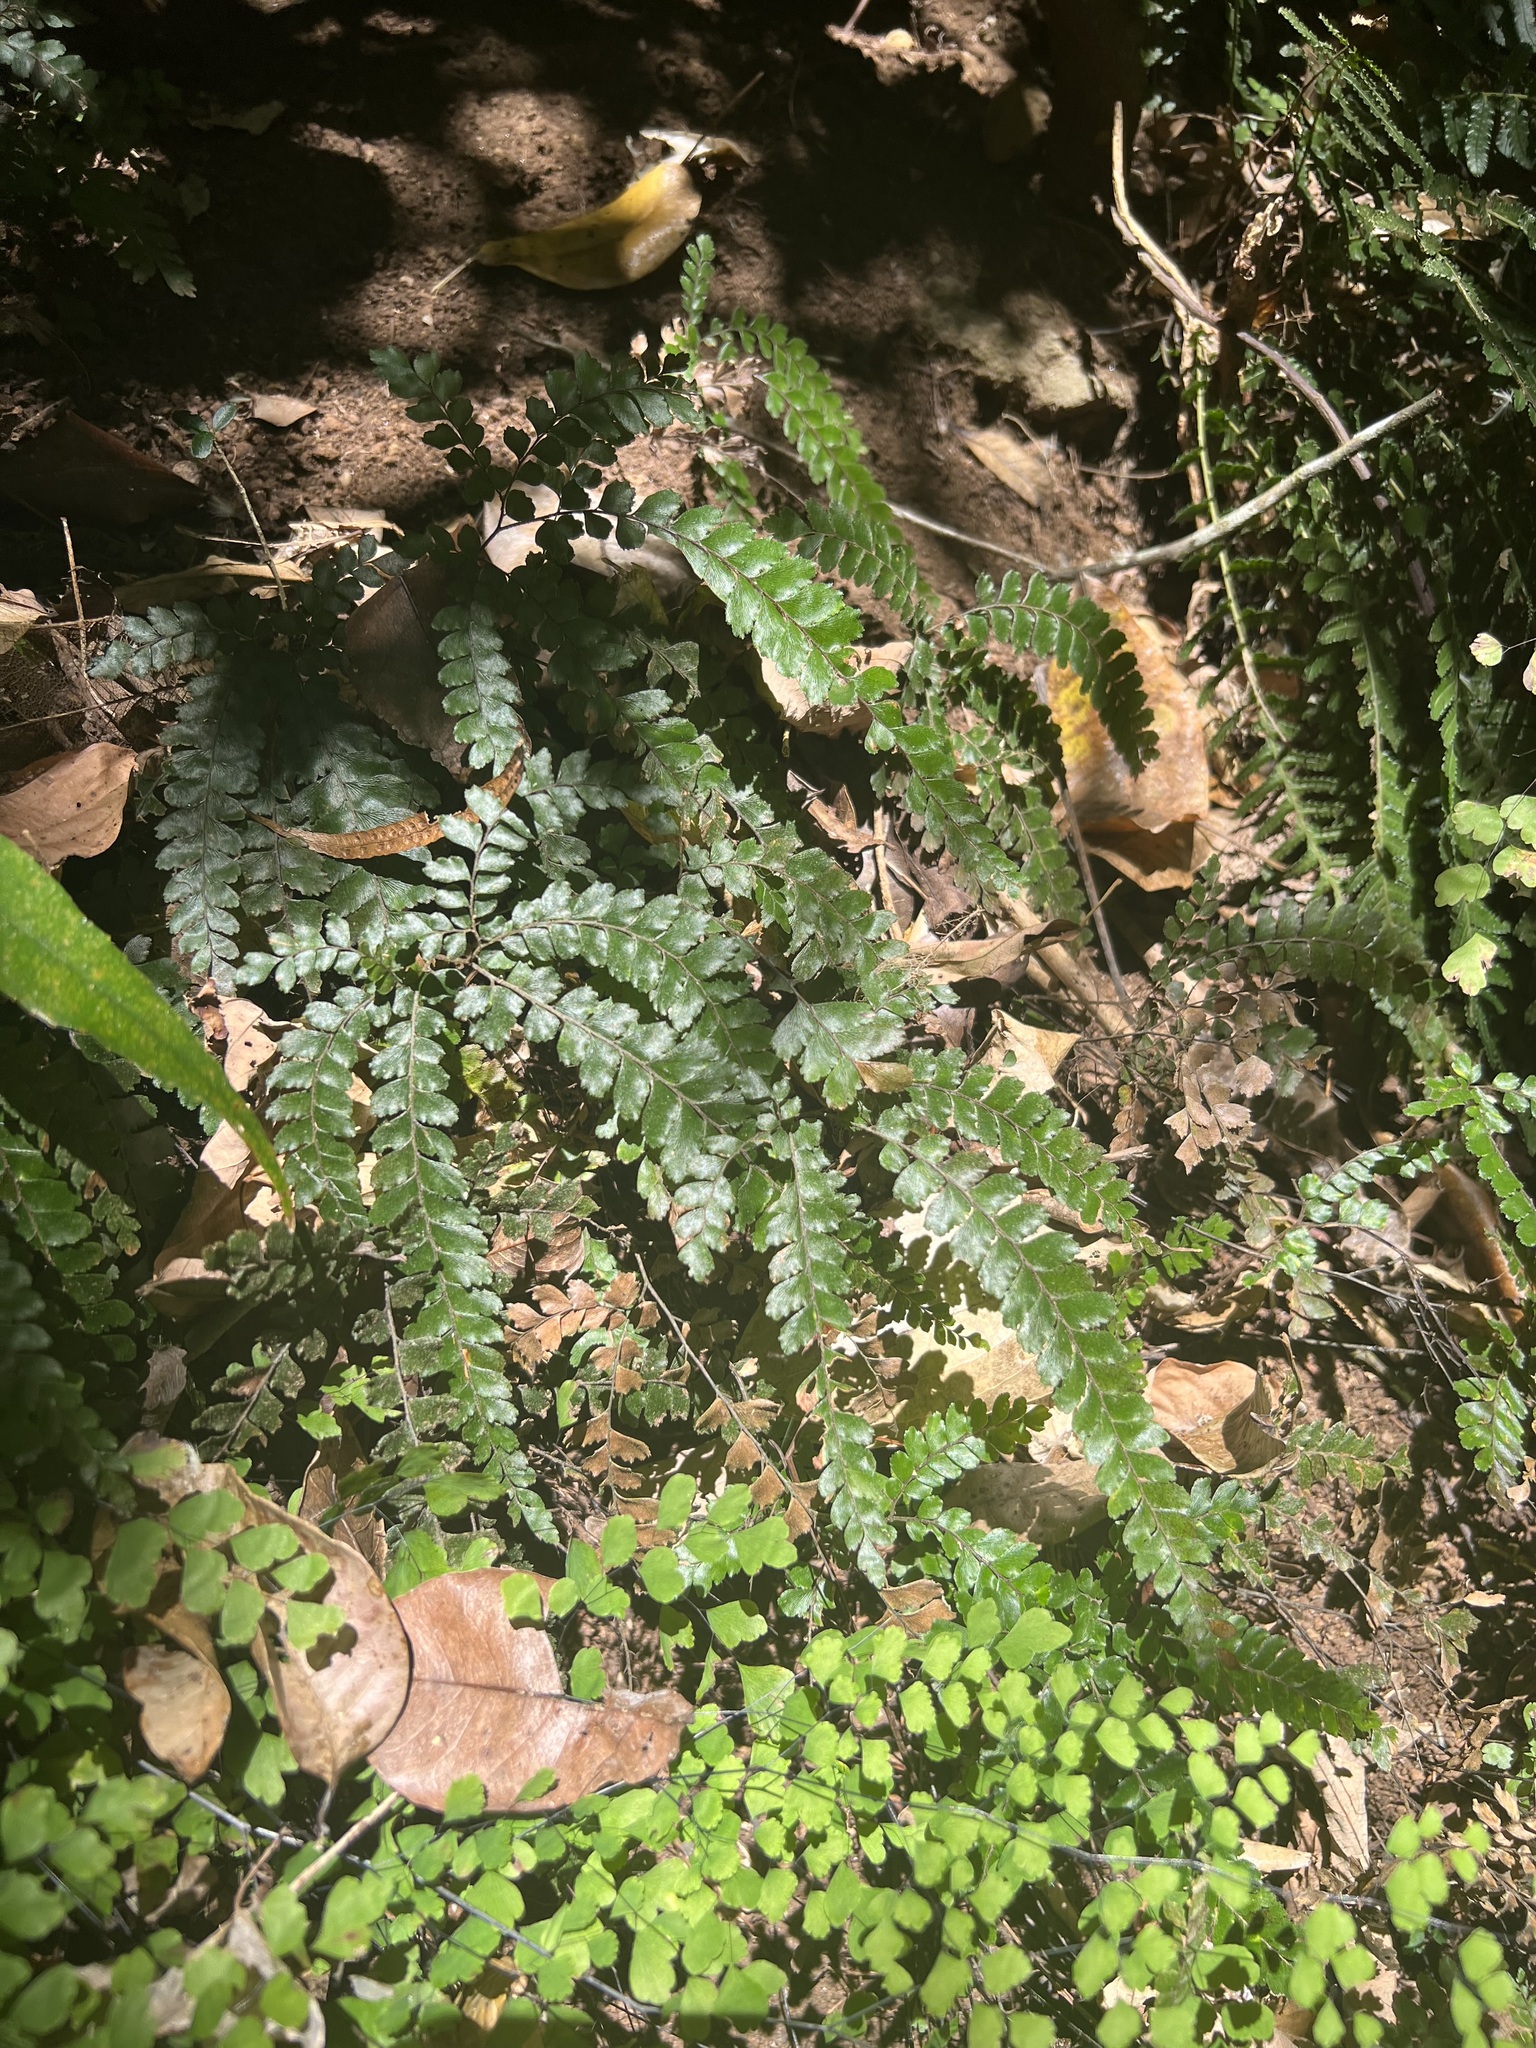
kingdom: Plantae
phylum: Tracheophyta
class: Polypodiopsida
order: Polypodiales
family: Pteridaceae
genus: Adiantum
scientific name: Adiantum hispidulum
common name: Rough maidenhair
